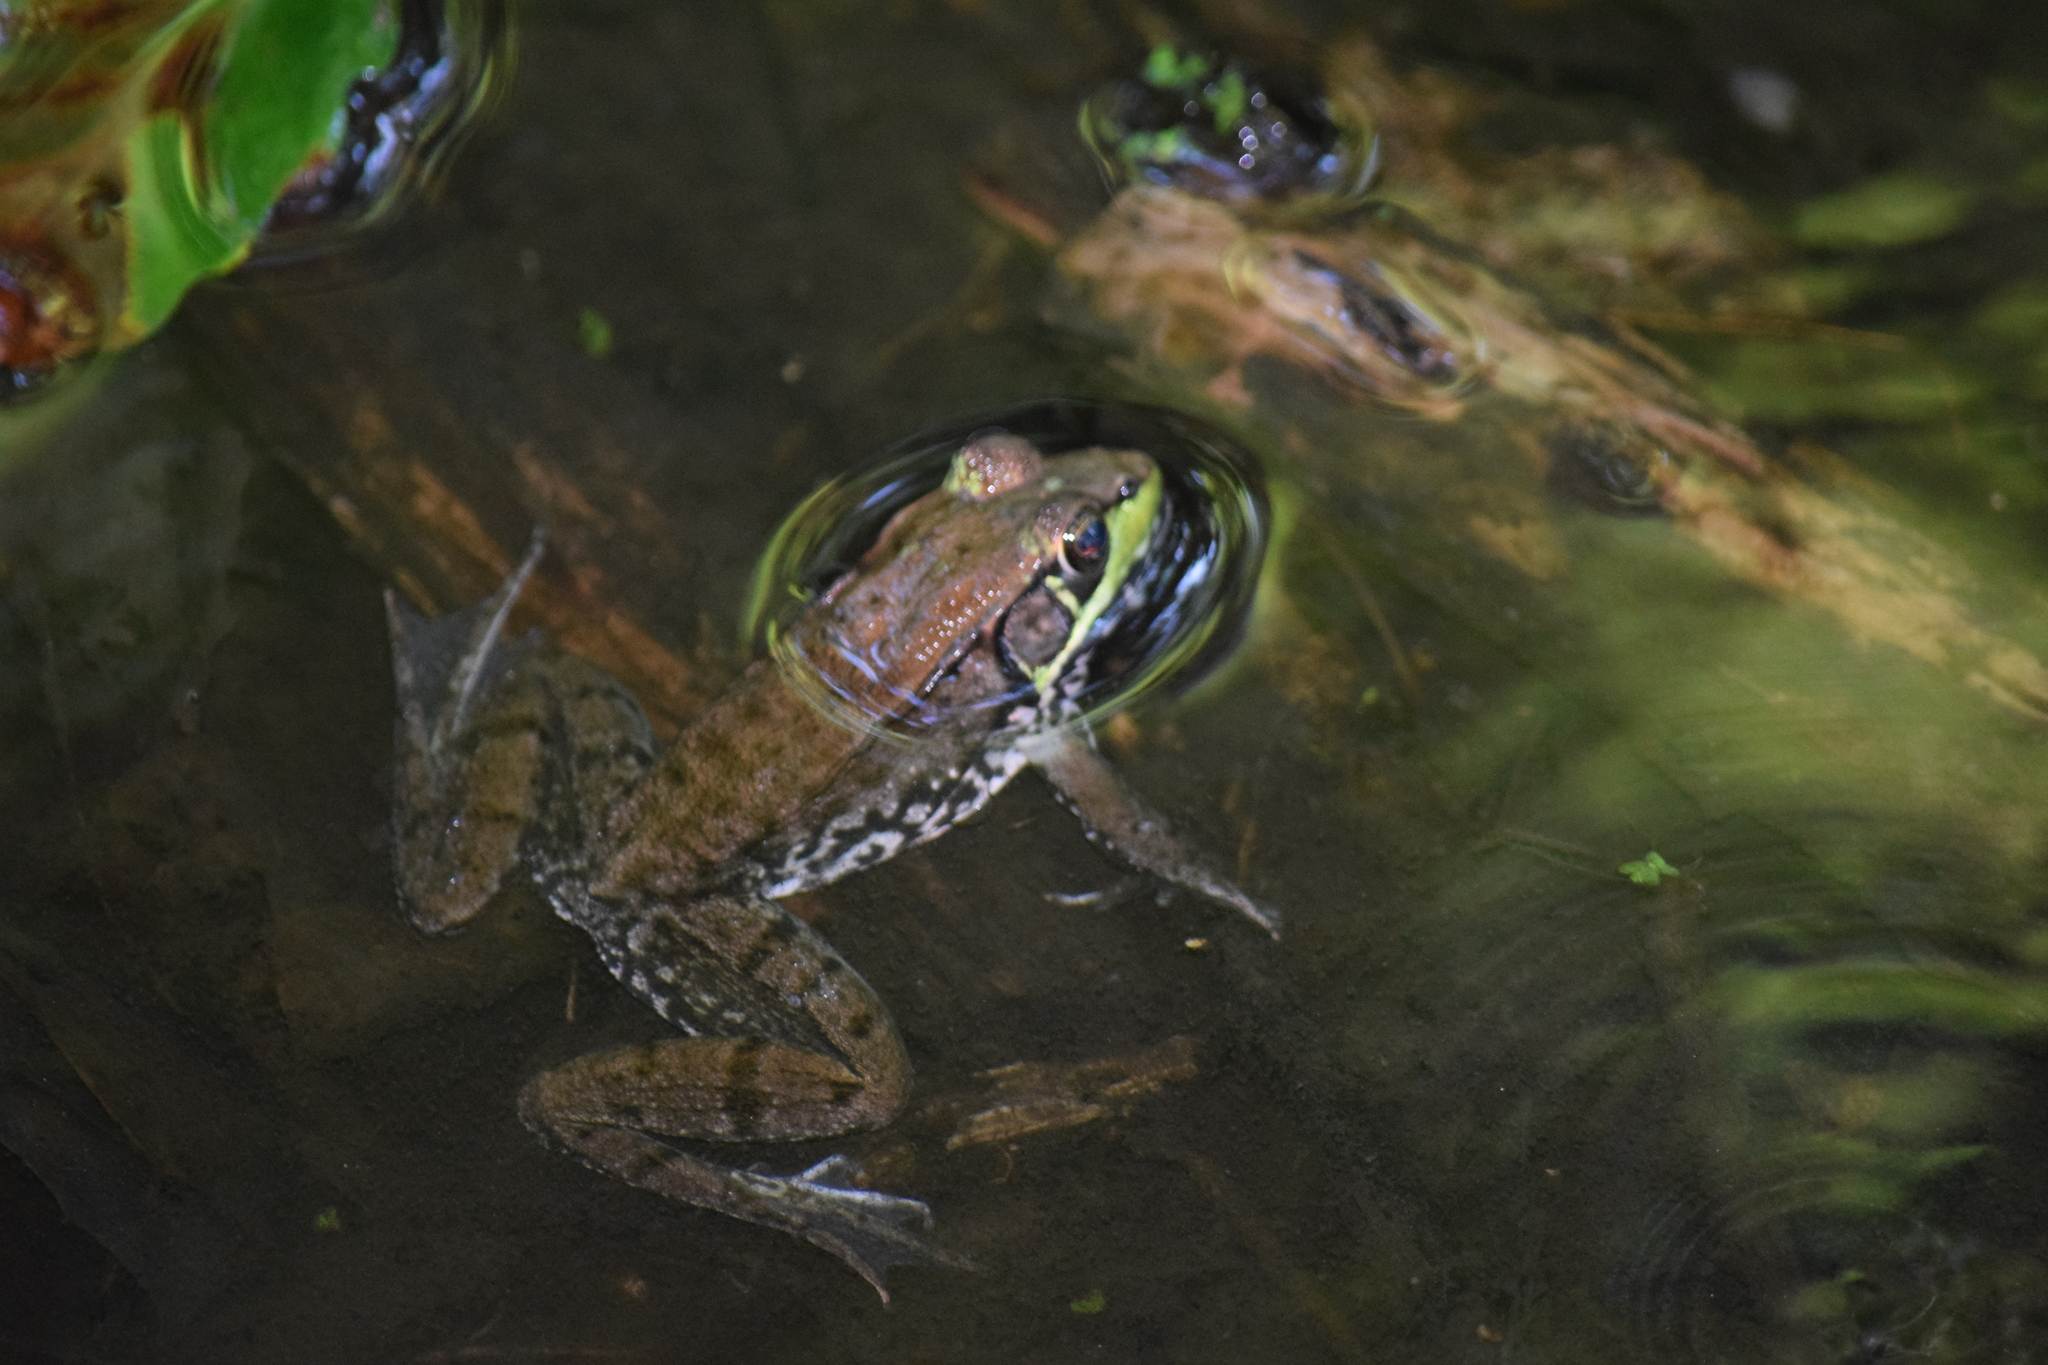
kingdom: Animalia
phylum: Chordata
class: Amphibia
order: Anura
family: Ranidae
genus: Lithobates
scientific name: Lithobates clamitans
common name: Green frog
